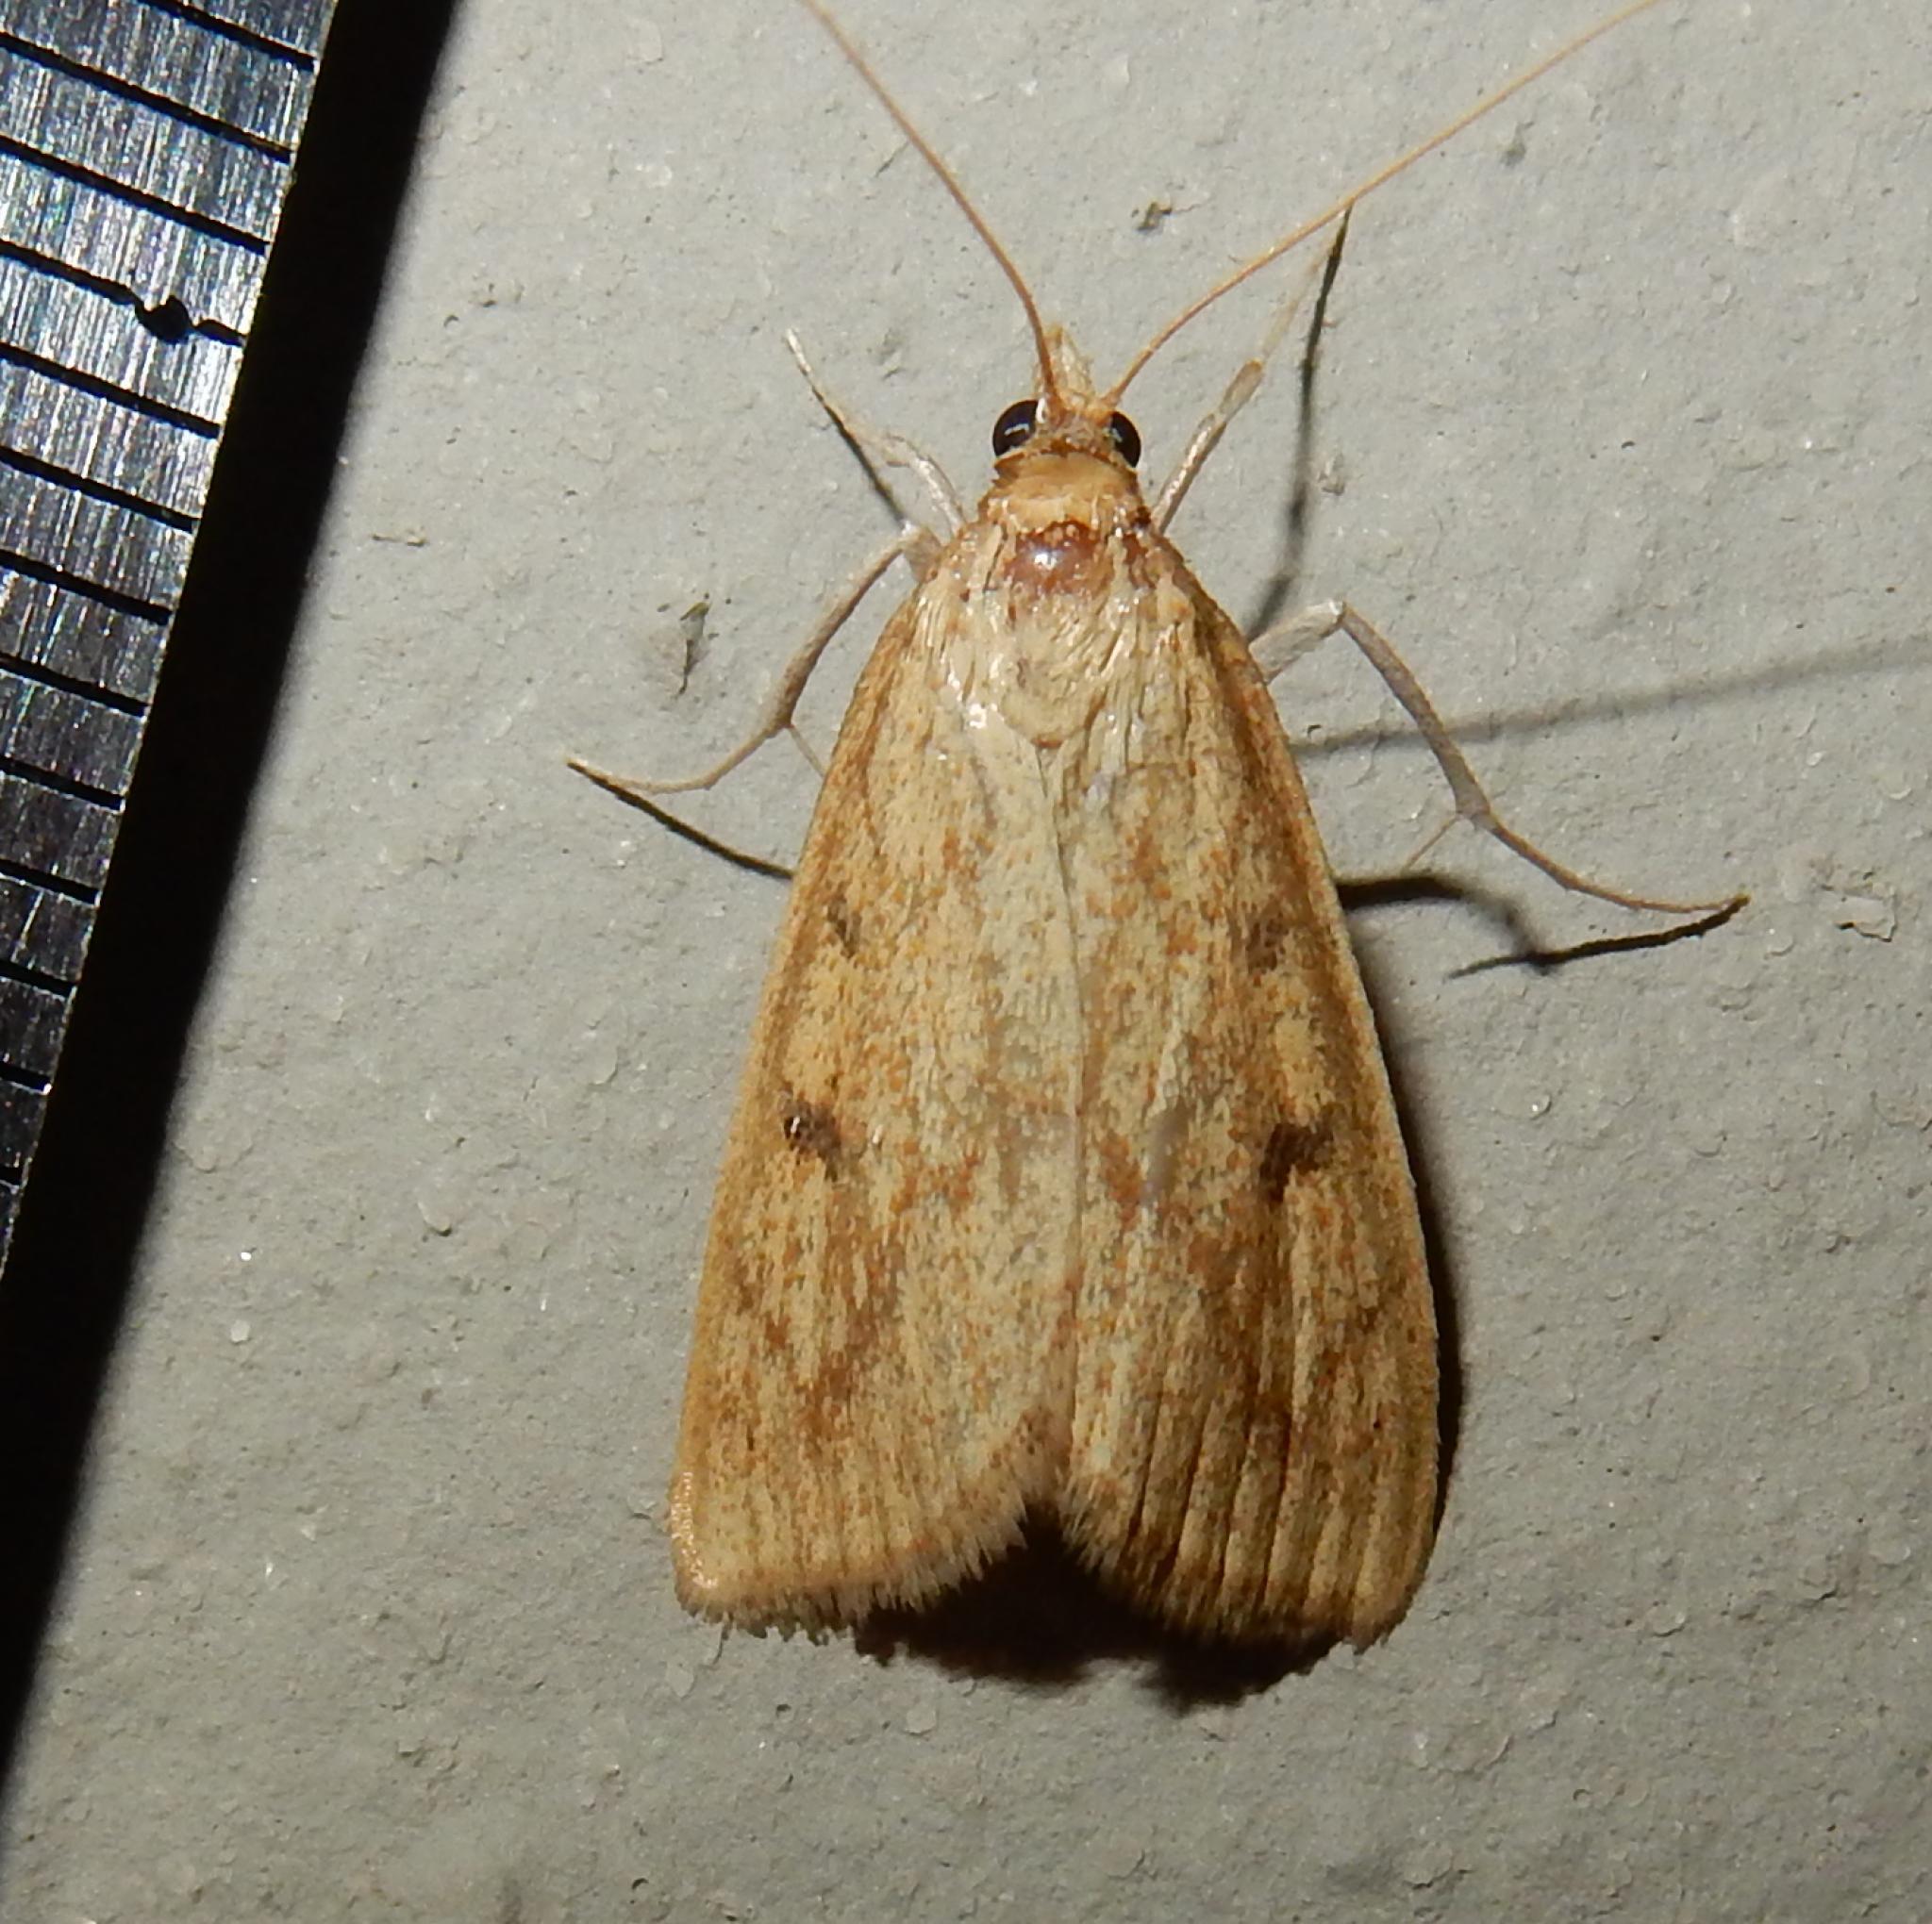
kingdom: Animalia
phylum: Arthropoda
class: Insecta
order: Lepidoptera
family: Crambidae
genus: Udea
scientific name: Udea ferrugalis
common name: Rusty dot
